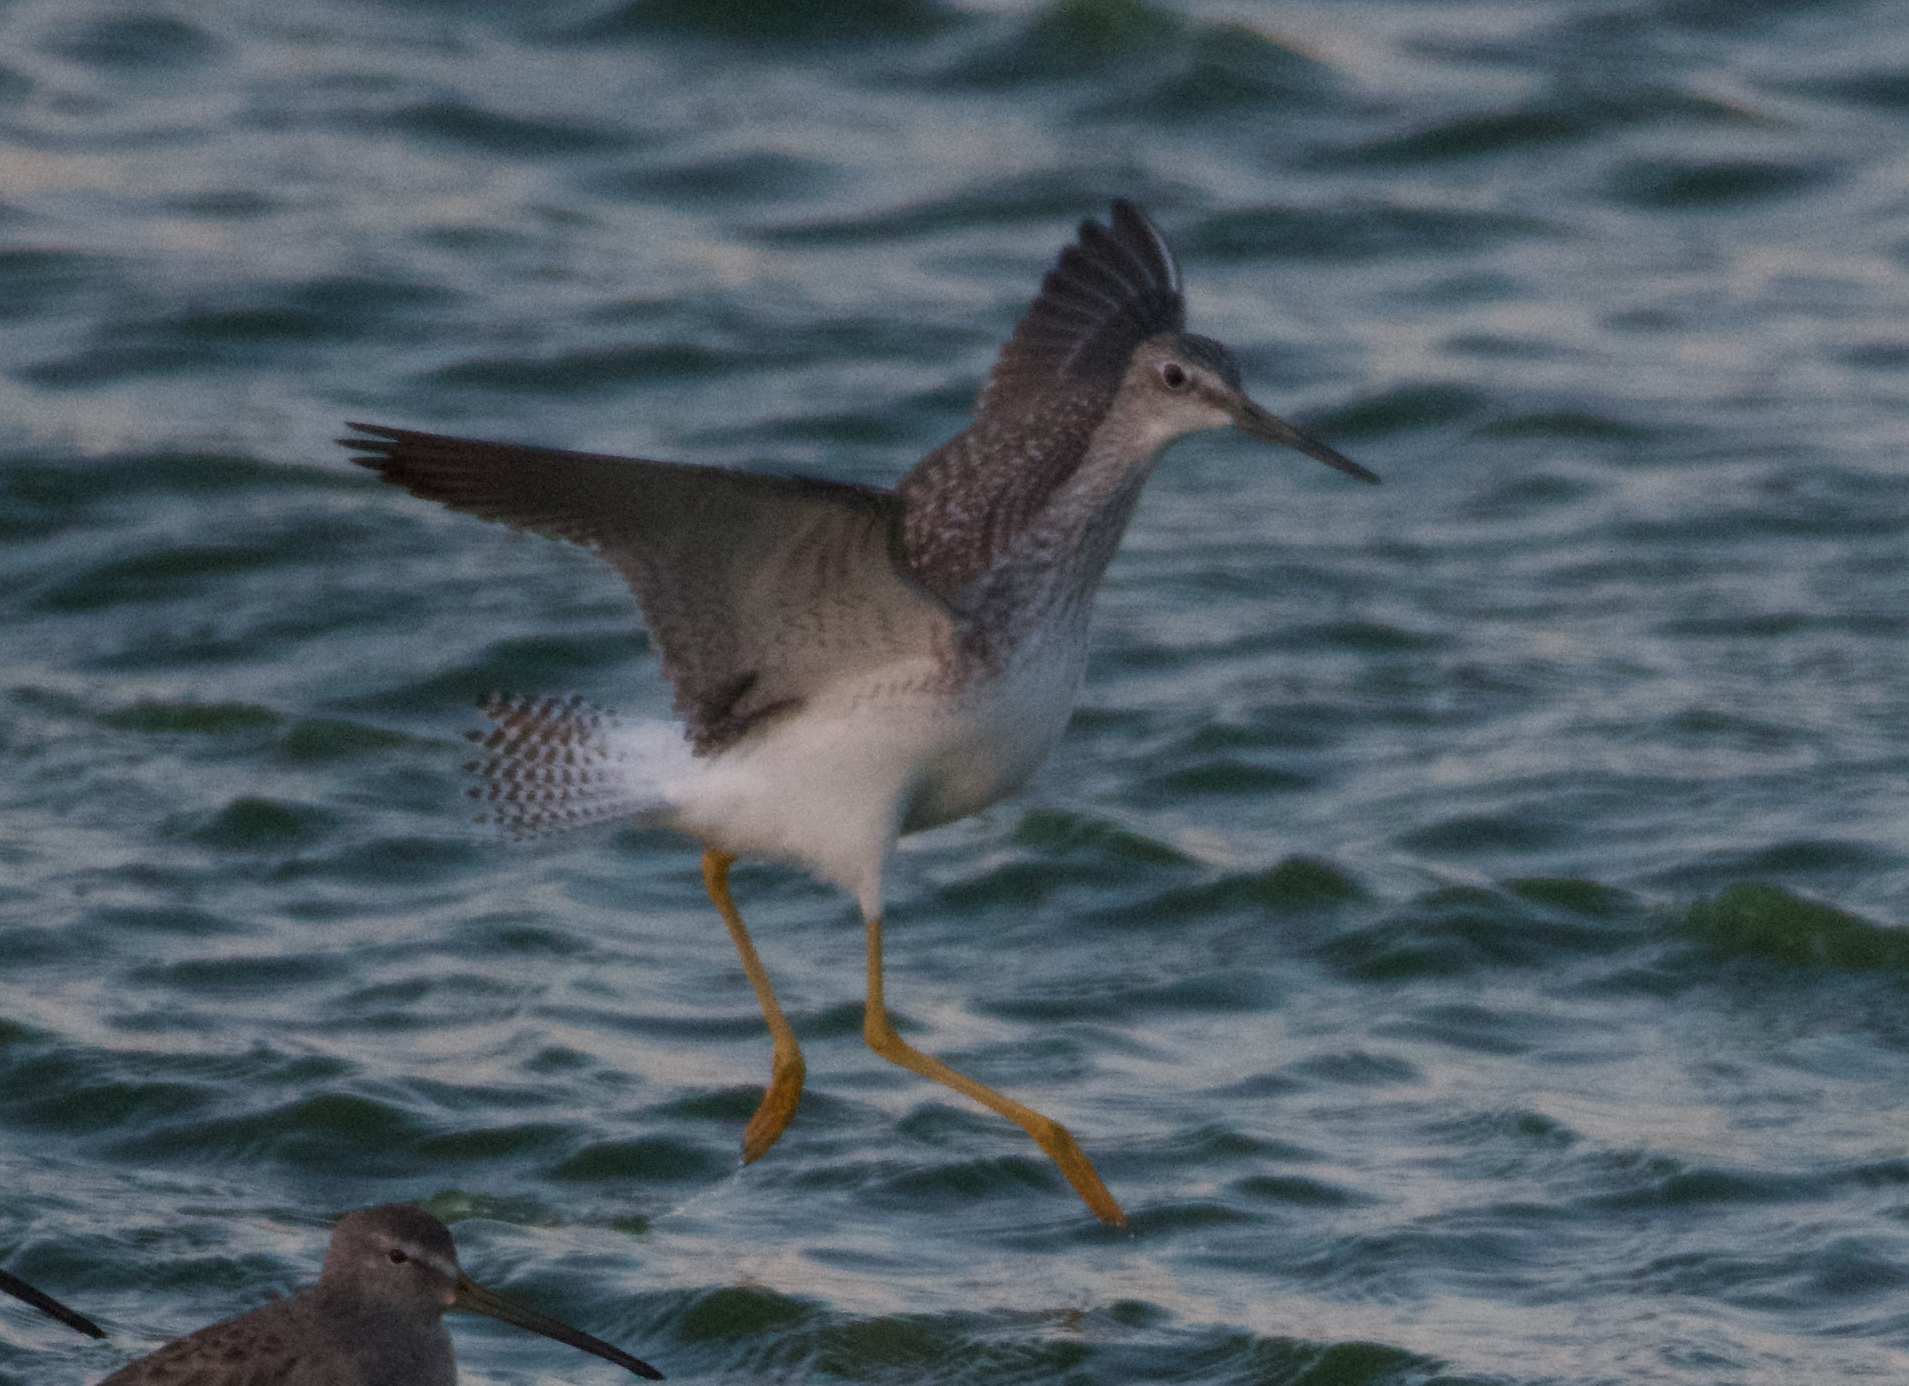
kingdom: Animalia
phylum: Chordata
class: Aves
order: Charadriiformes
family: Scolopacidae
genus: Tringa
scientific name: Tringa melanoleuca
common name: Greater yellowlegs
